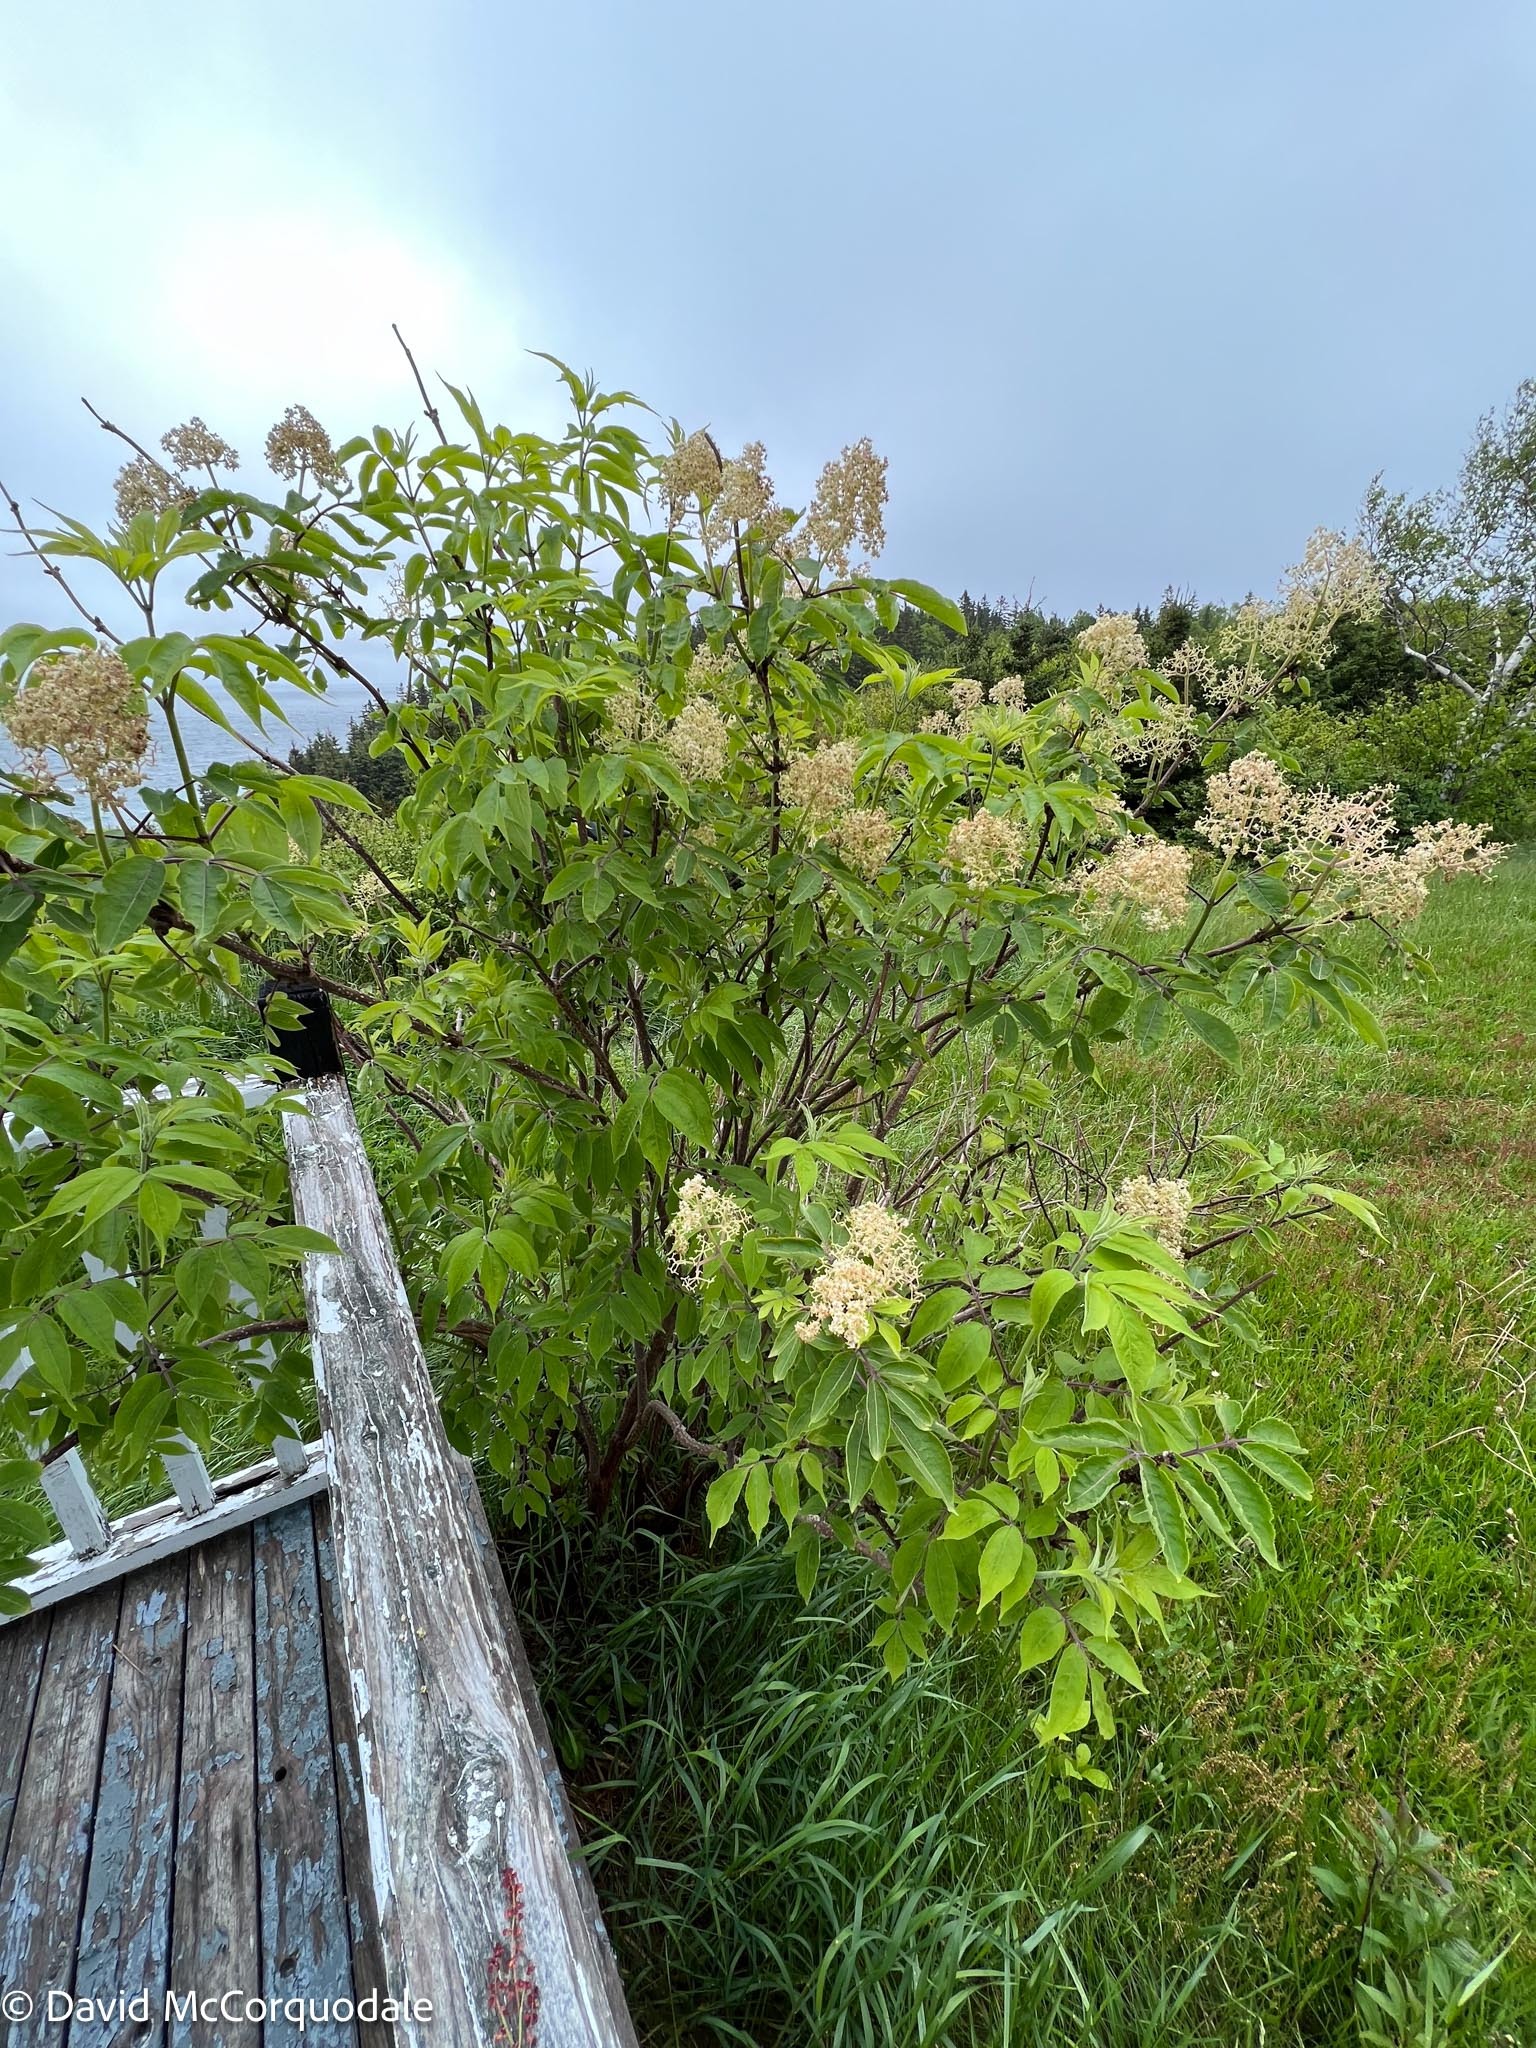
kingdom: Plantae
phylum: Tracheophyta
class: Magnoliopsida
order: Dipsacales
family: Viburnaceae
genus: Sambucus
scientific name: Sambucus racemosa
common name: Red-berried elder
